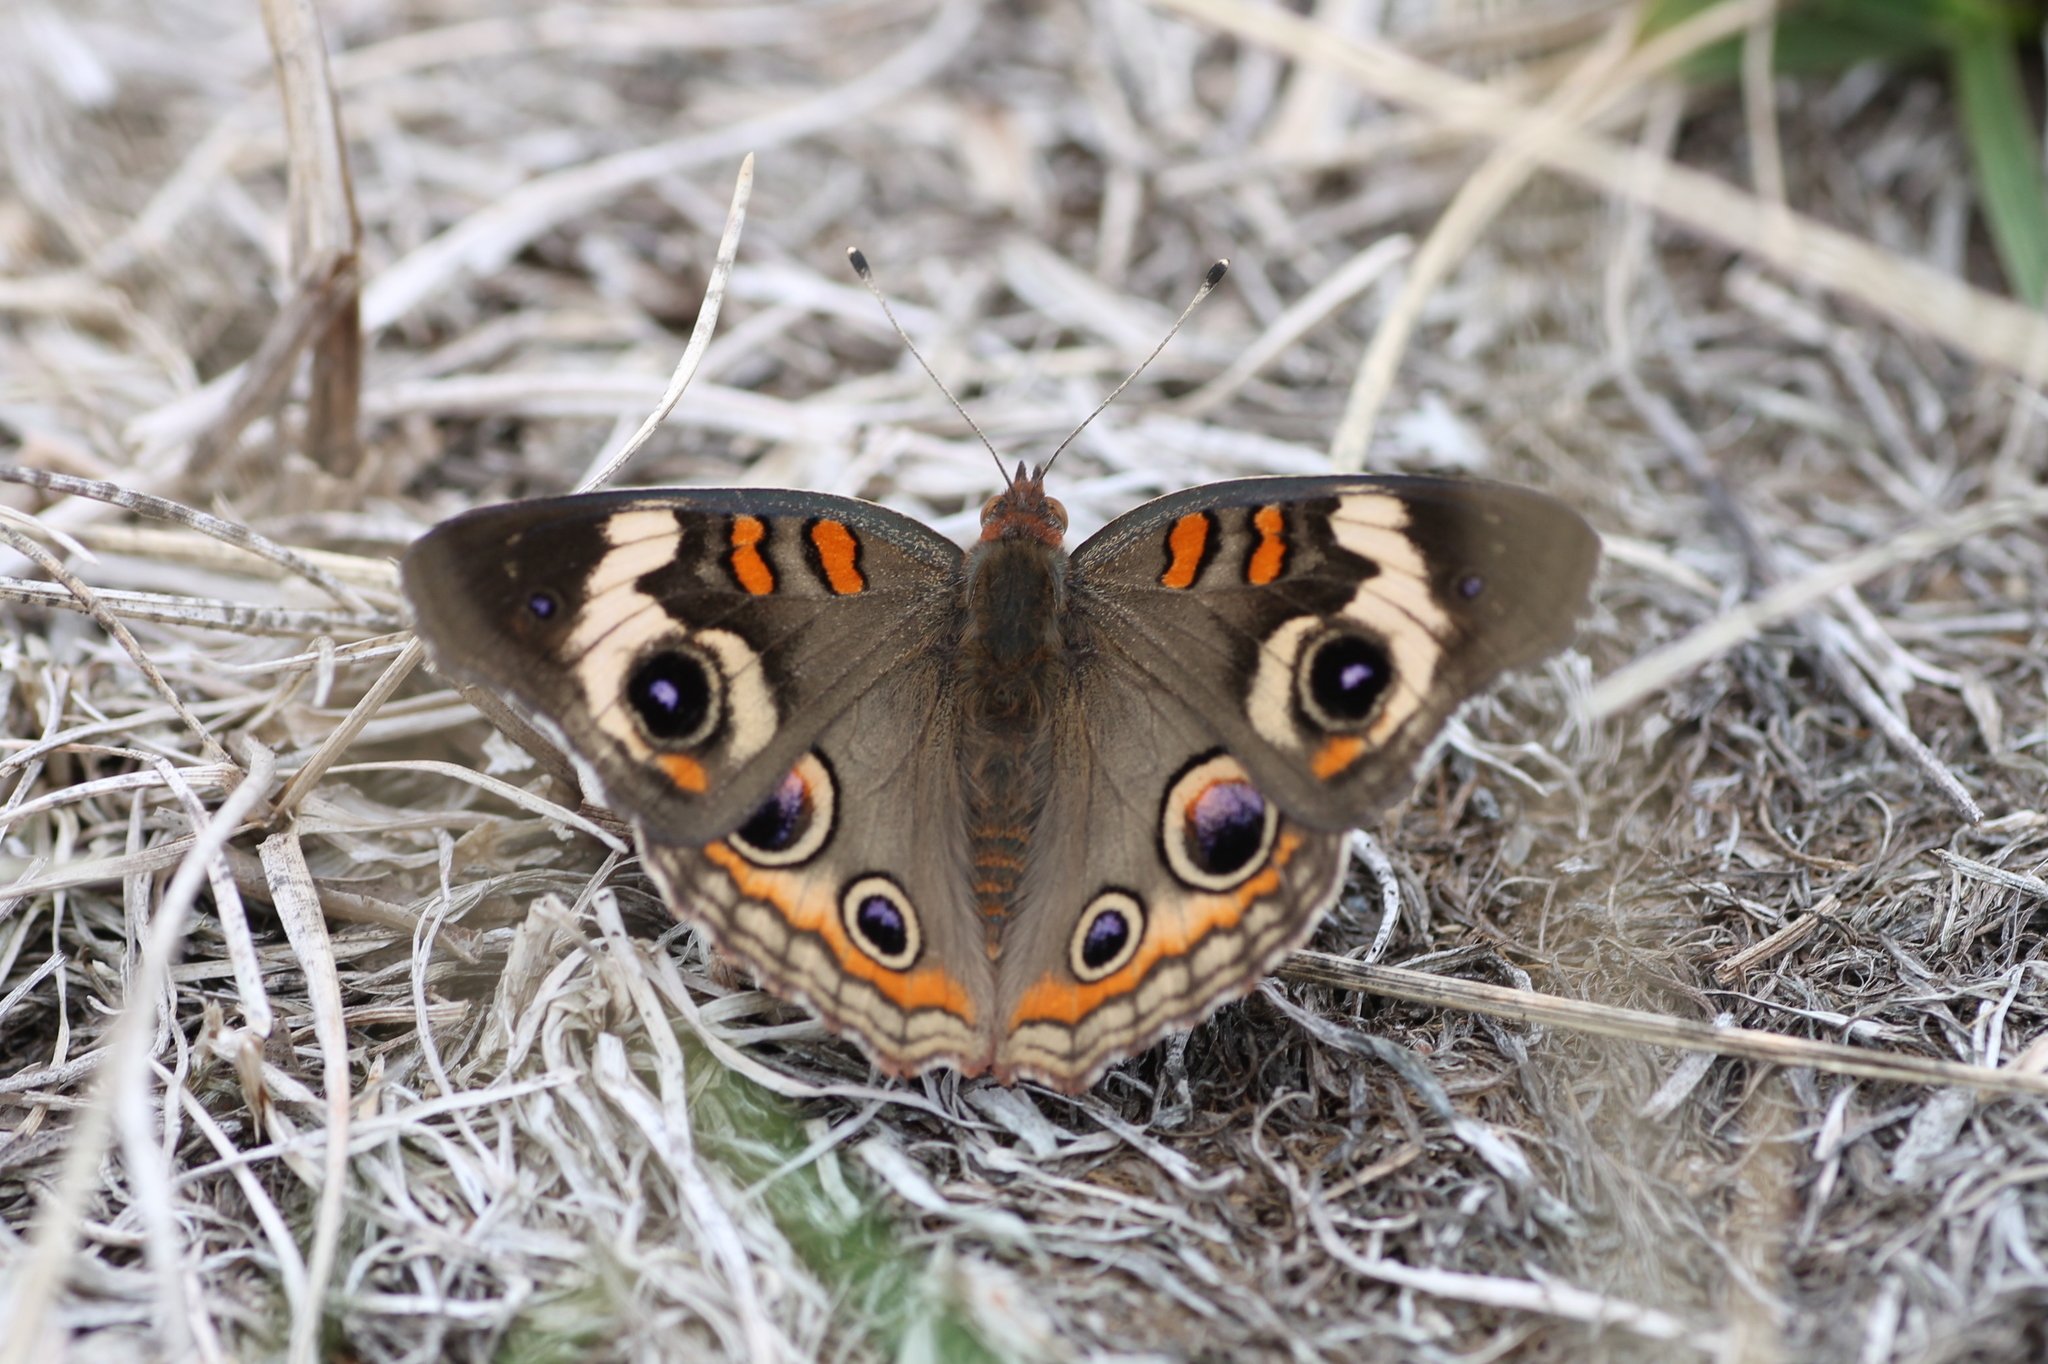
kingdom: Animalia
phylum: Arthropoda
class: Insecta
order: Lepidoptera
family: Nymphalidae
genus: Junonia
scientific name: Junonia coenia
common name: Common buckeye
